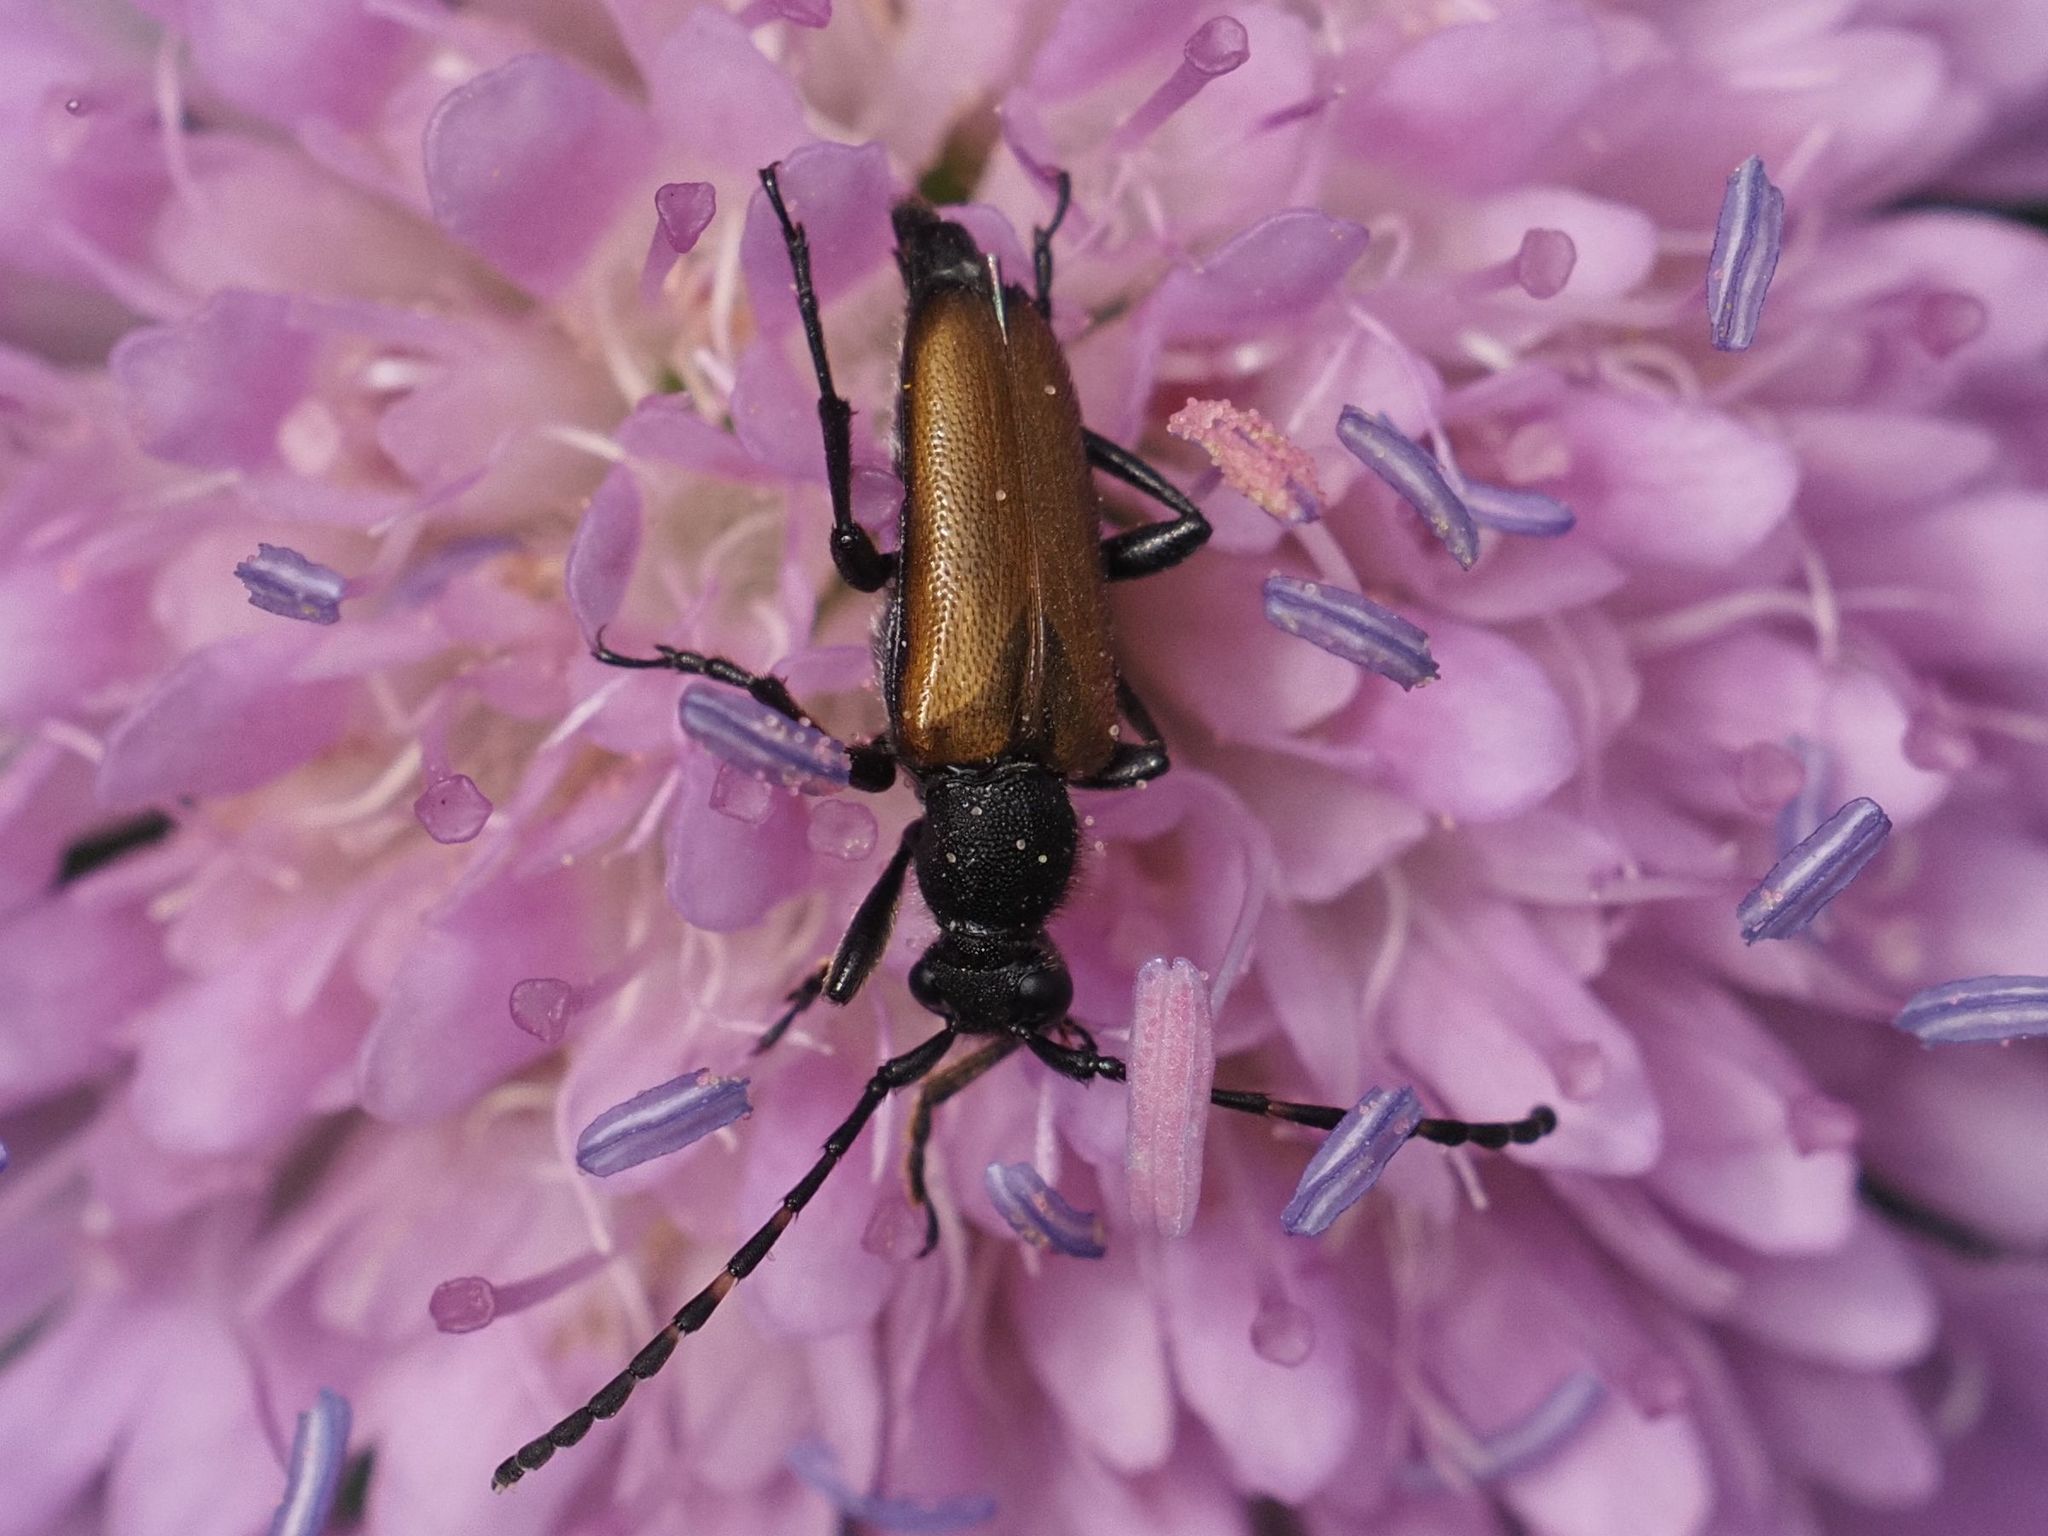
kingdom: Animalia
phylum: Arthropoda
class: Insecta
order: Coleoptera
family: Cerambycidae
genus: Paracorymbia
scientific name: Paracorymbia maculicornis
